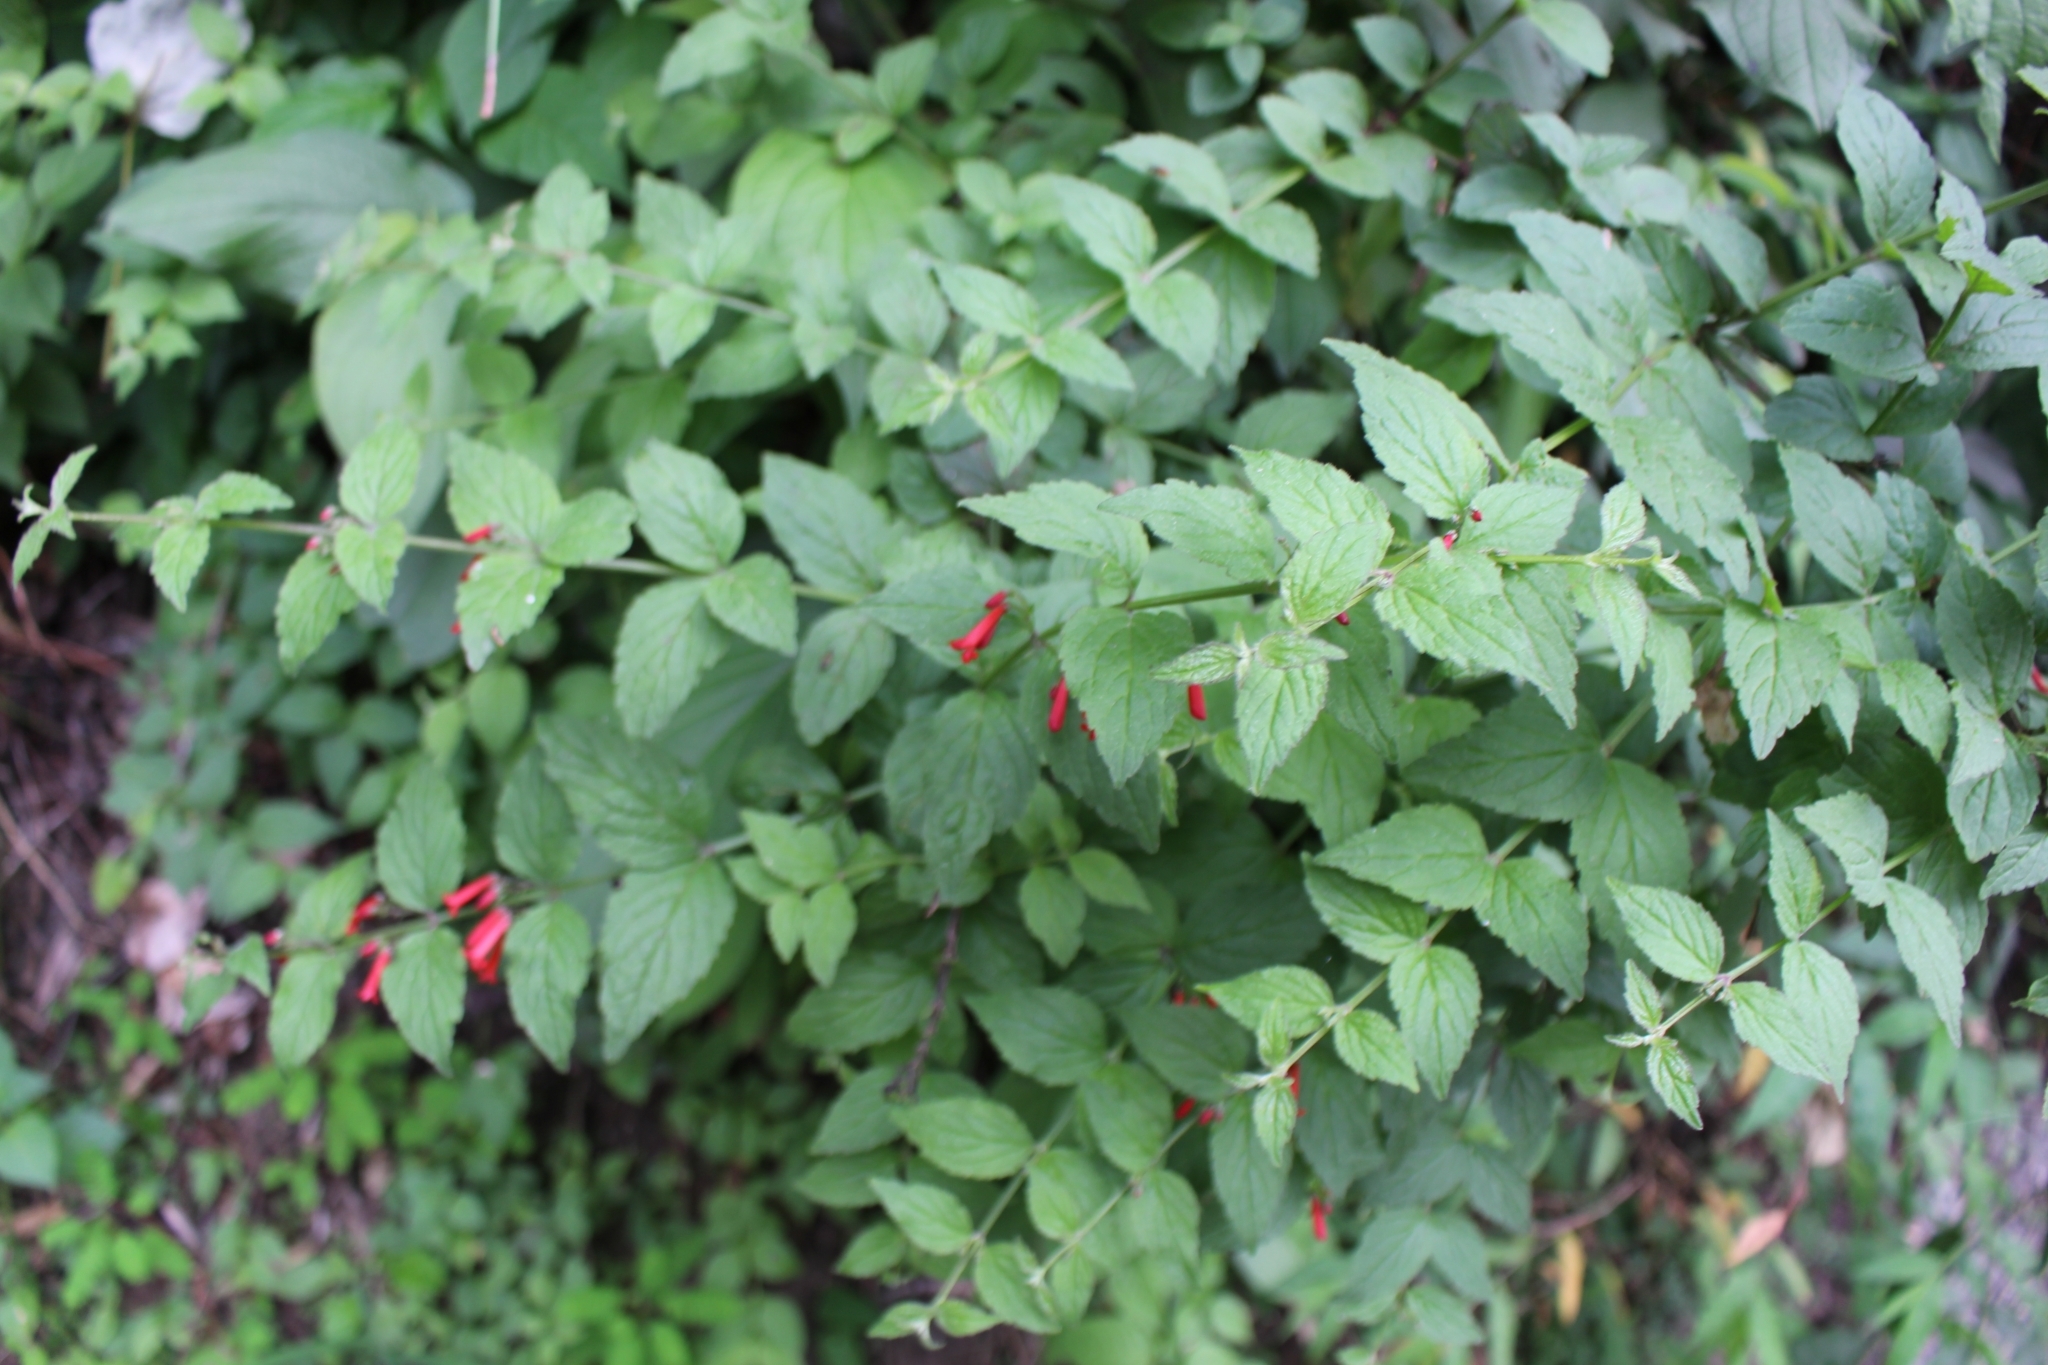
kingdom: Plantae
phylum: Tracheophyta
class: Magnoliopsida
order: Lamiales
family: Plantaginaceae
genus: Russelia
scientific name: Russelia sarmentosa
